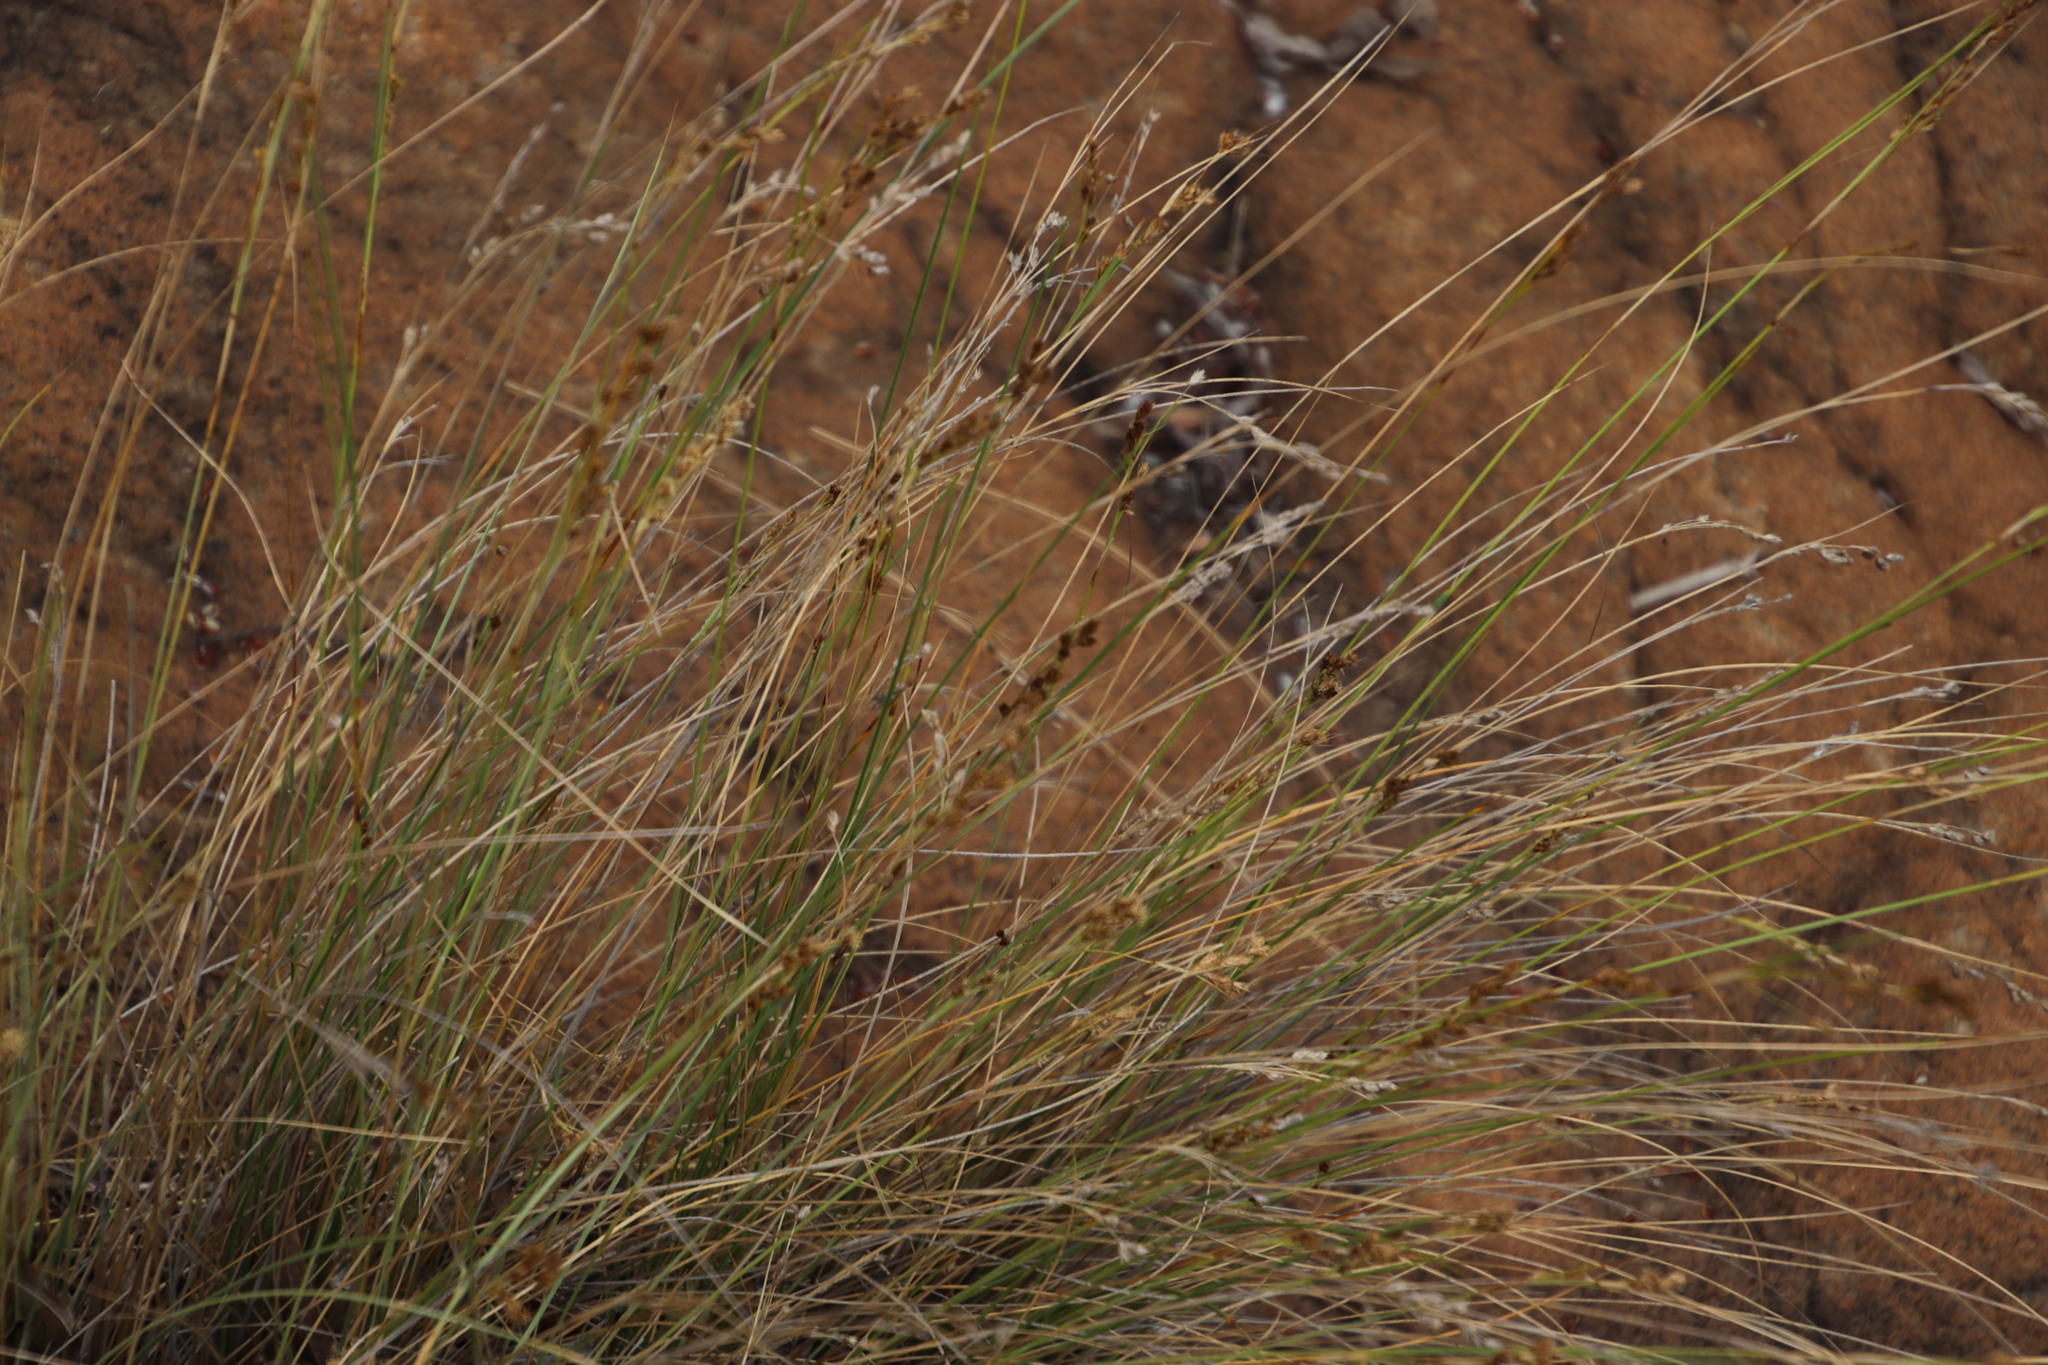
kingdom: Plantae
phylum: Tracheophyta
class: Liliopsida
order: Poales
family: Cyperaceae
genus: Coleochloa
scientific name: Coleochloa setifera
